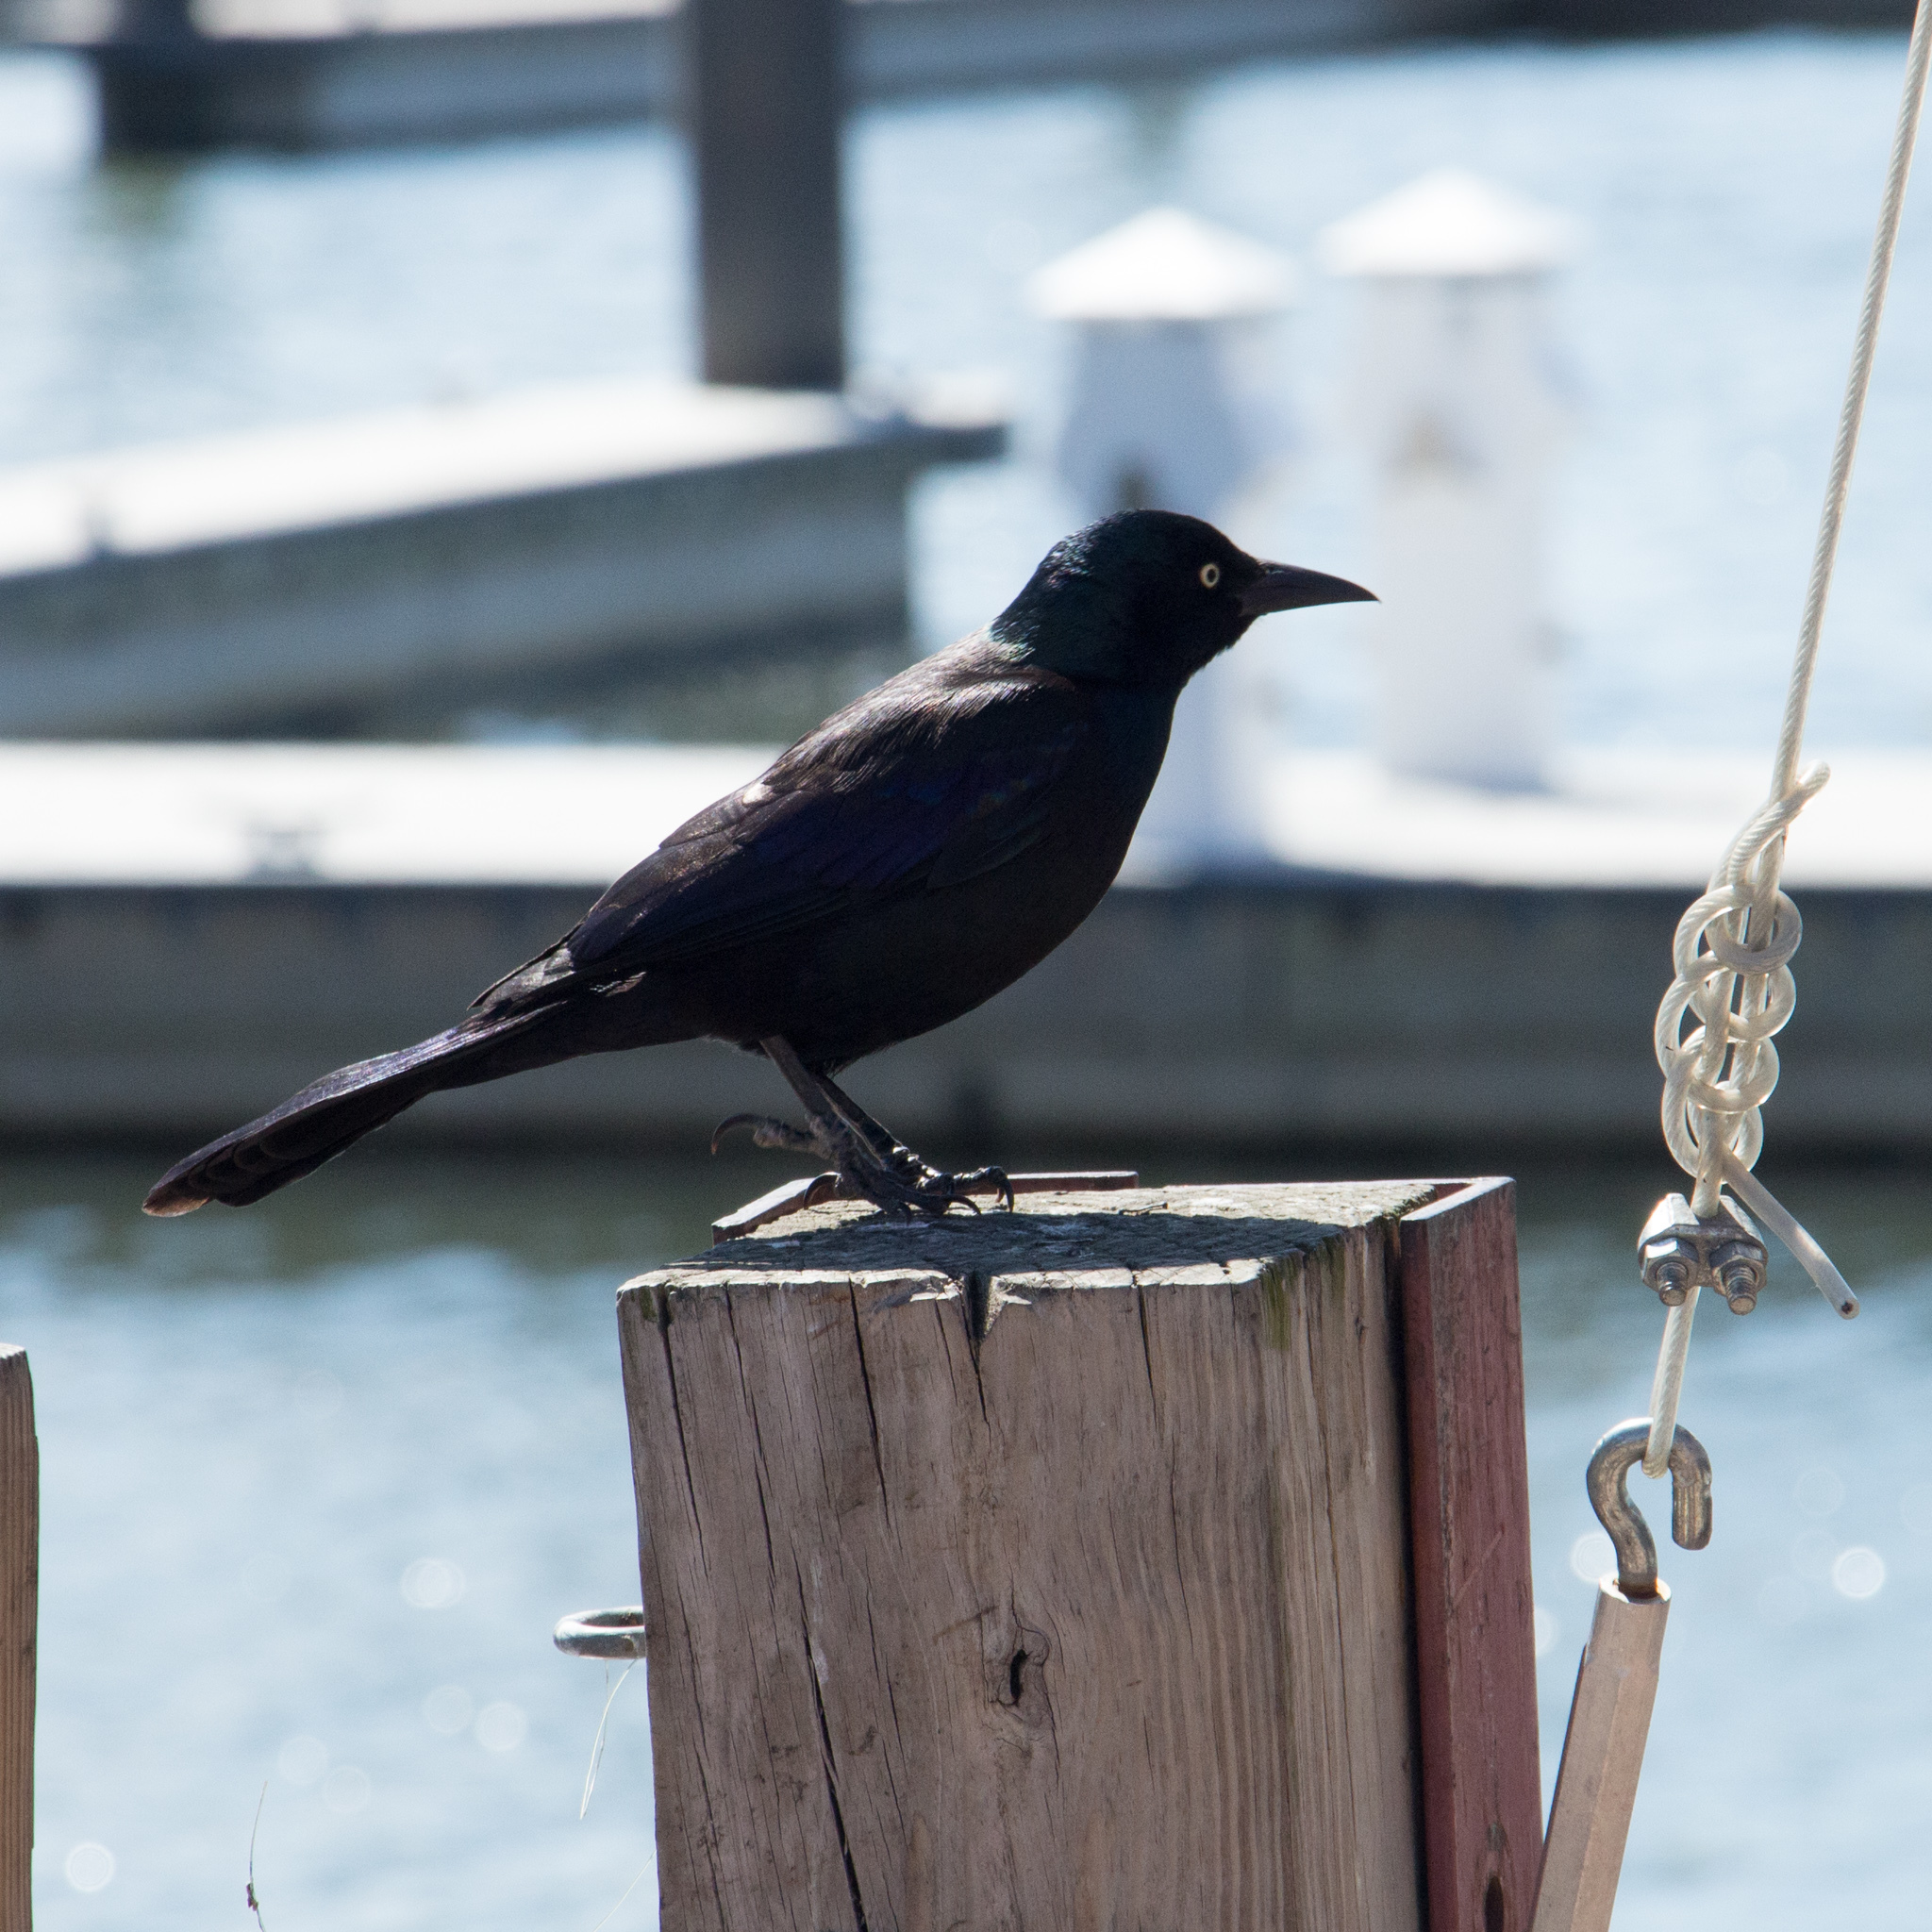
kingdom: Animalia
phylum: Chordata
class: Aves
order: Passeriformes
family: Icteridae
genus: Quiscalus
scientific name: Quiscalus quiscula
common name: Common grackle
